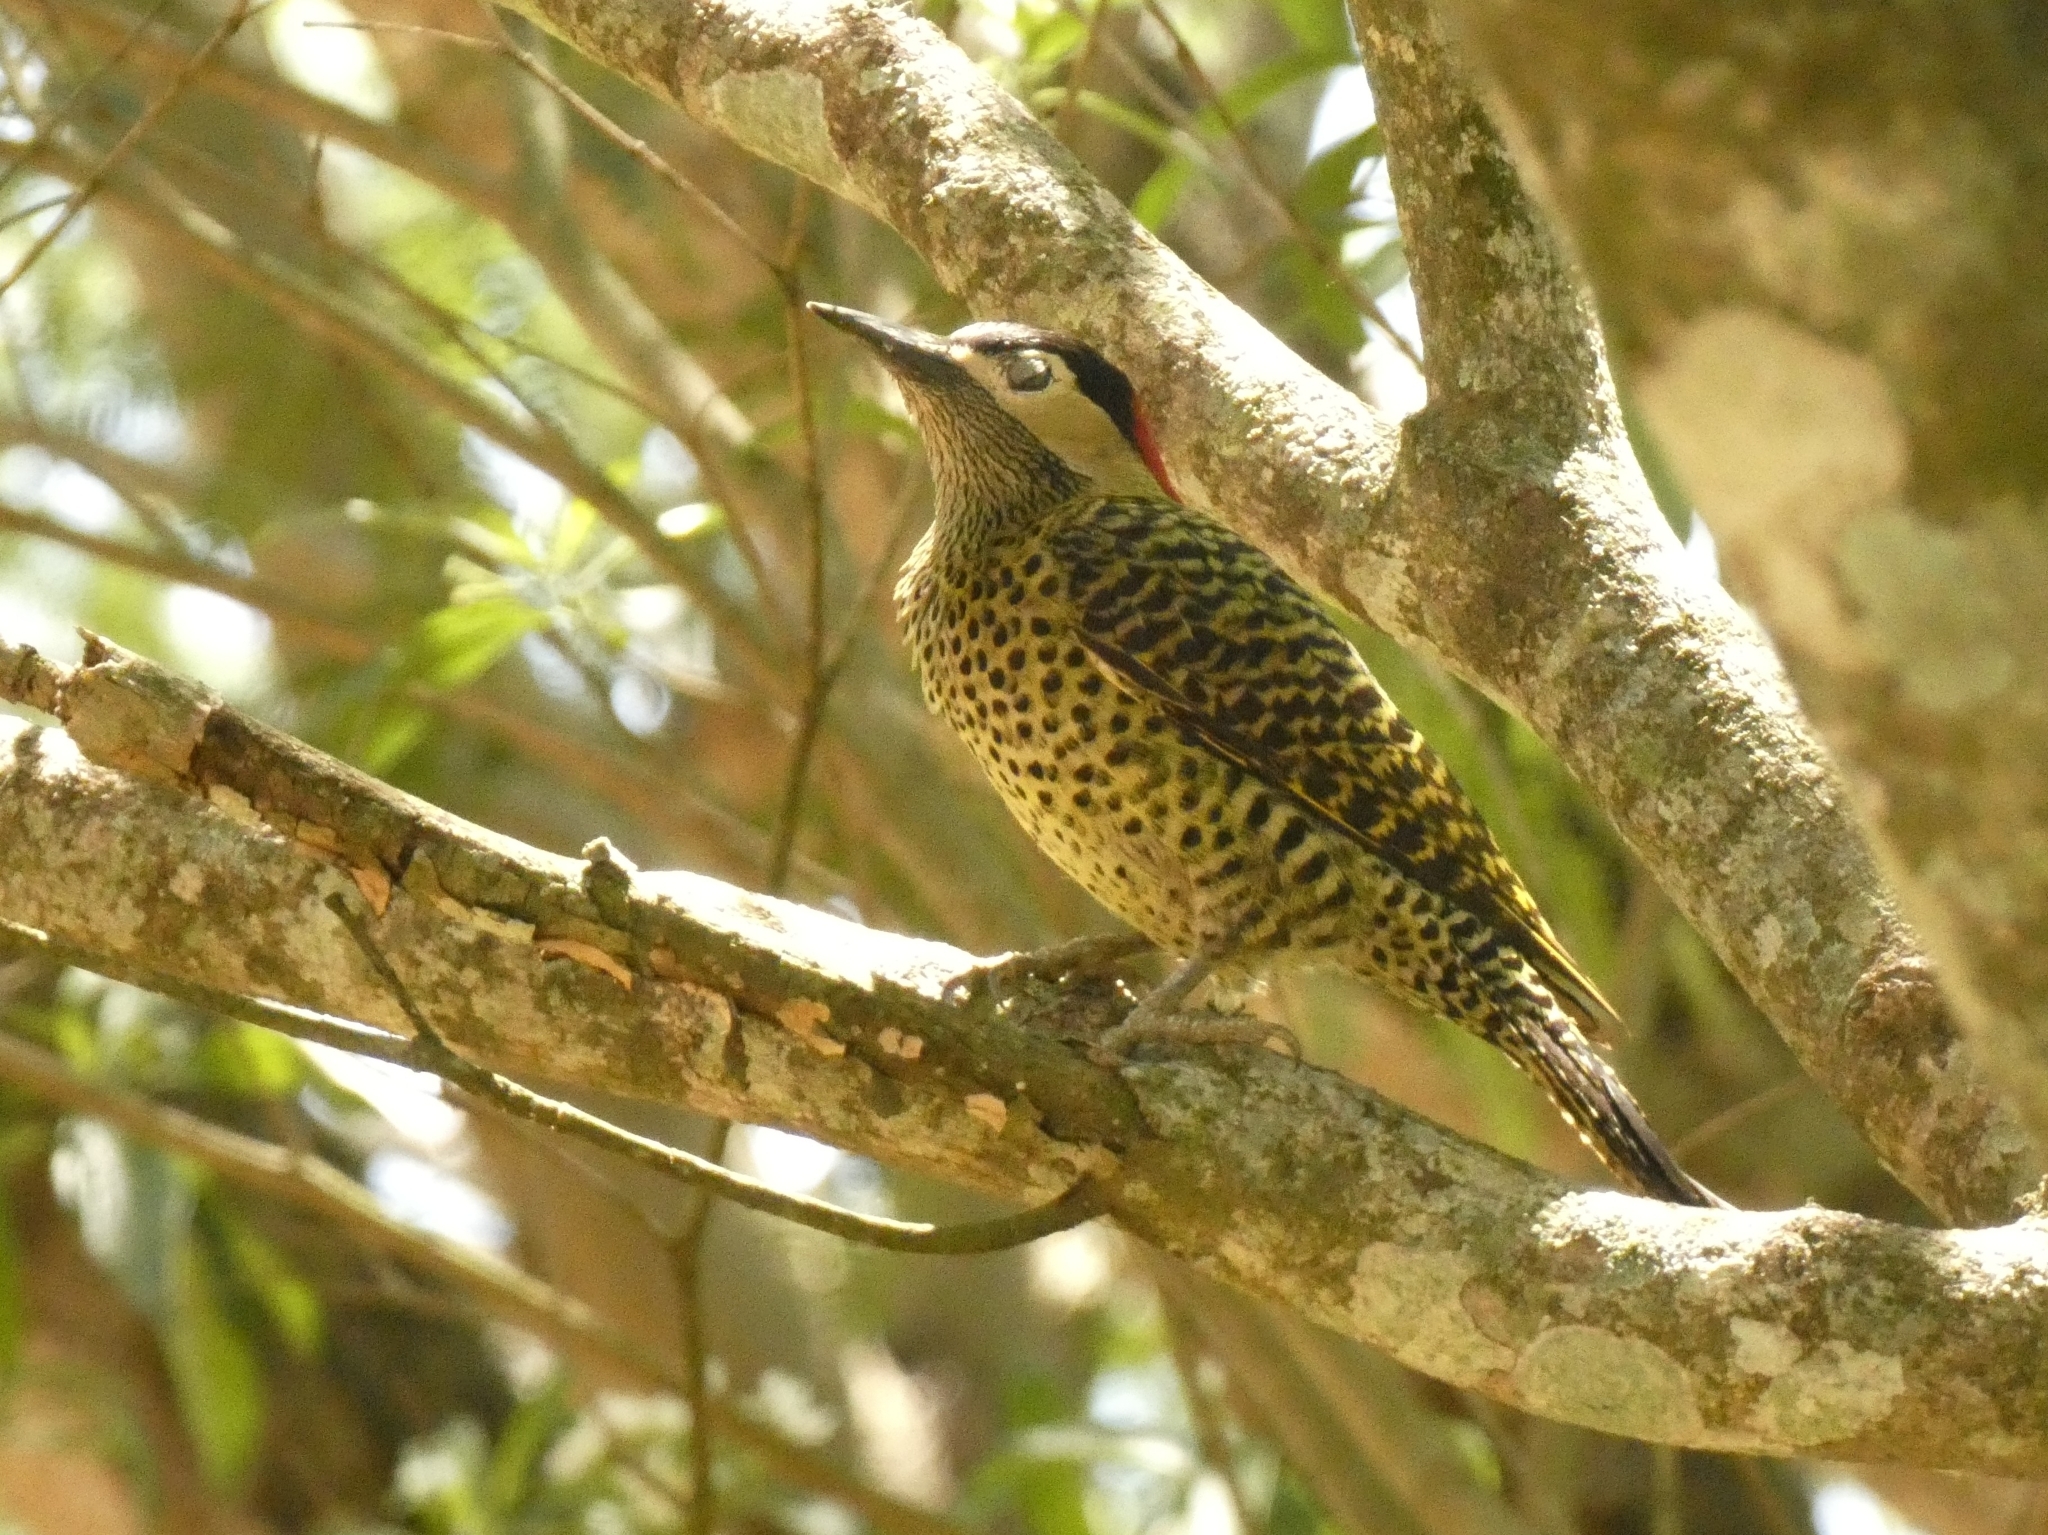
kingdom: Animalia
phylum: Chordata
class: Aves
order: Piciformes
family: Picidae
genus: Colaptes
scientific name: Colaptes melanochloros
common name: Green-barred woodpecker
